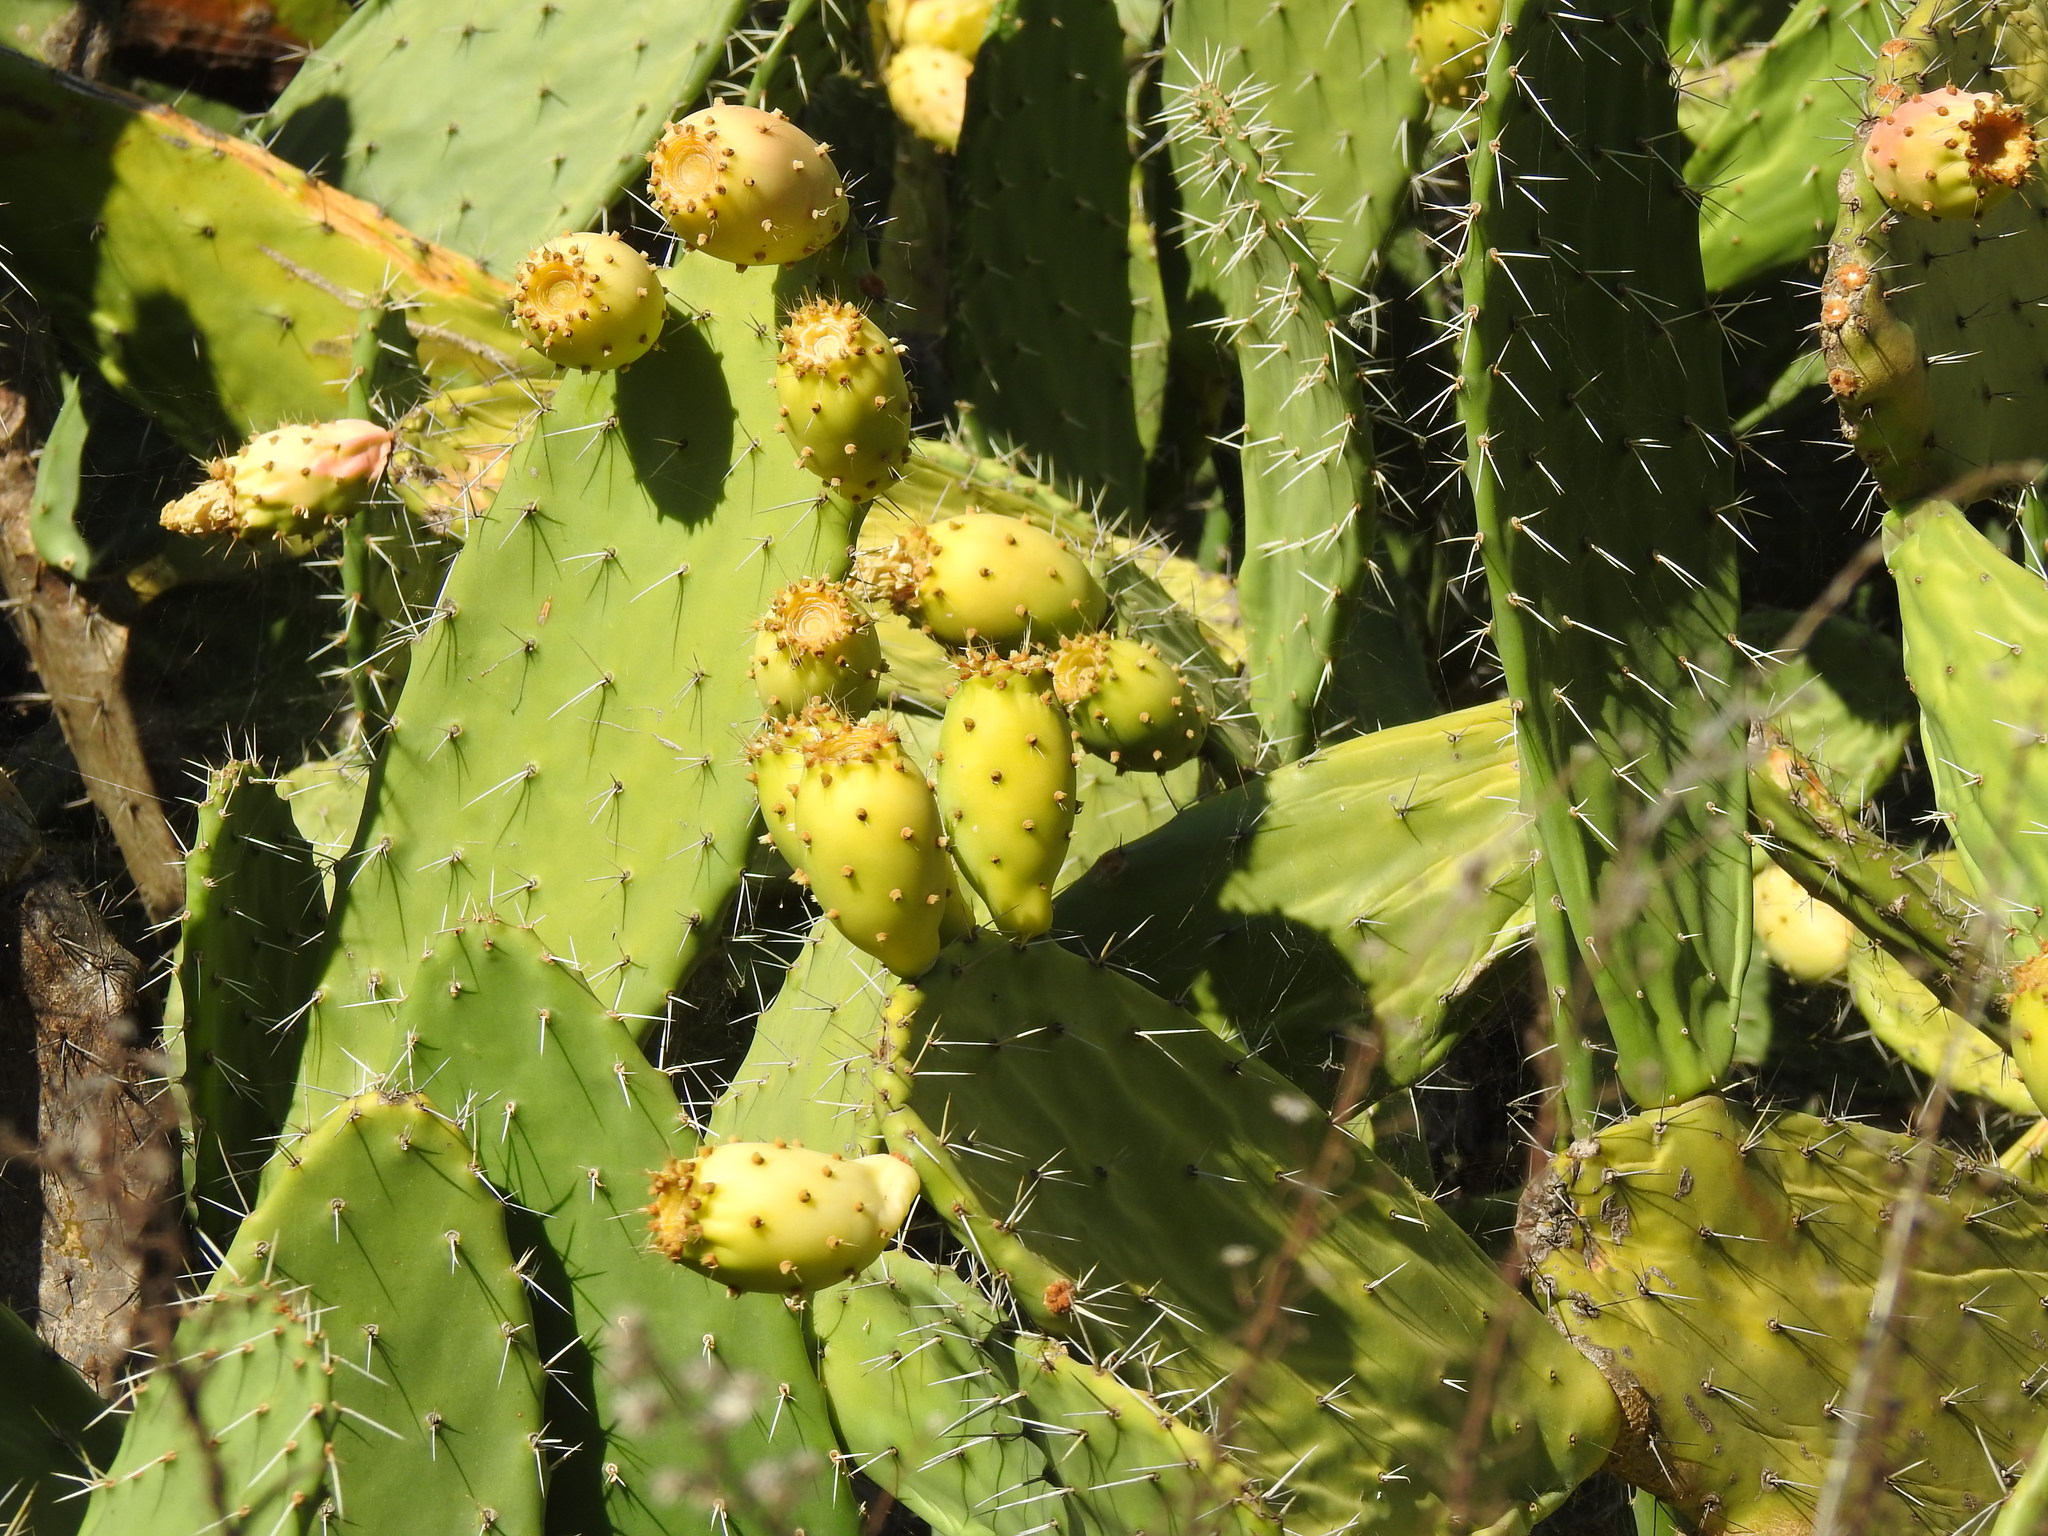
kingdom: Plantae
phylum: Tracheophyta
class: Magnoliopsida
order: Caryophyllales
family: Cactaceae
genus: Opuntia
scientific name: Opuntia ficus-indica
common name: Barbary fig
